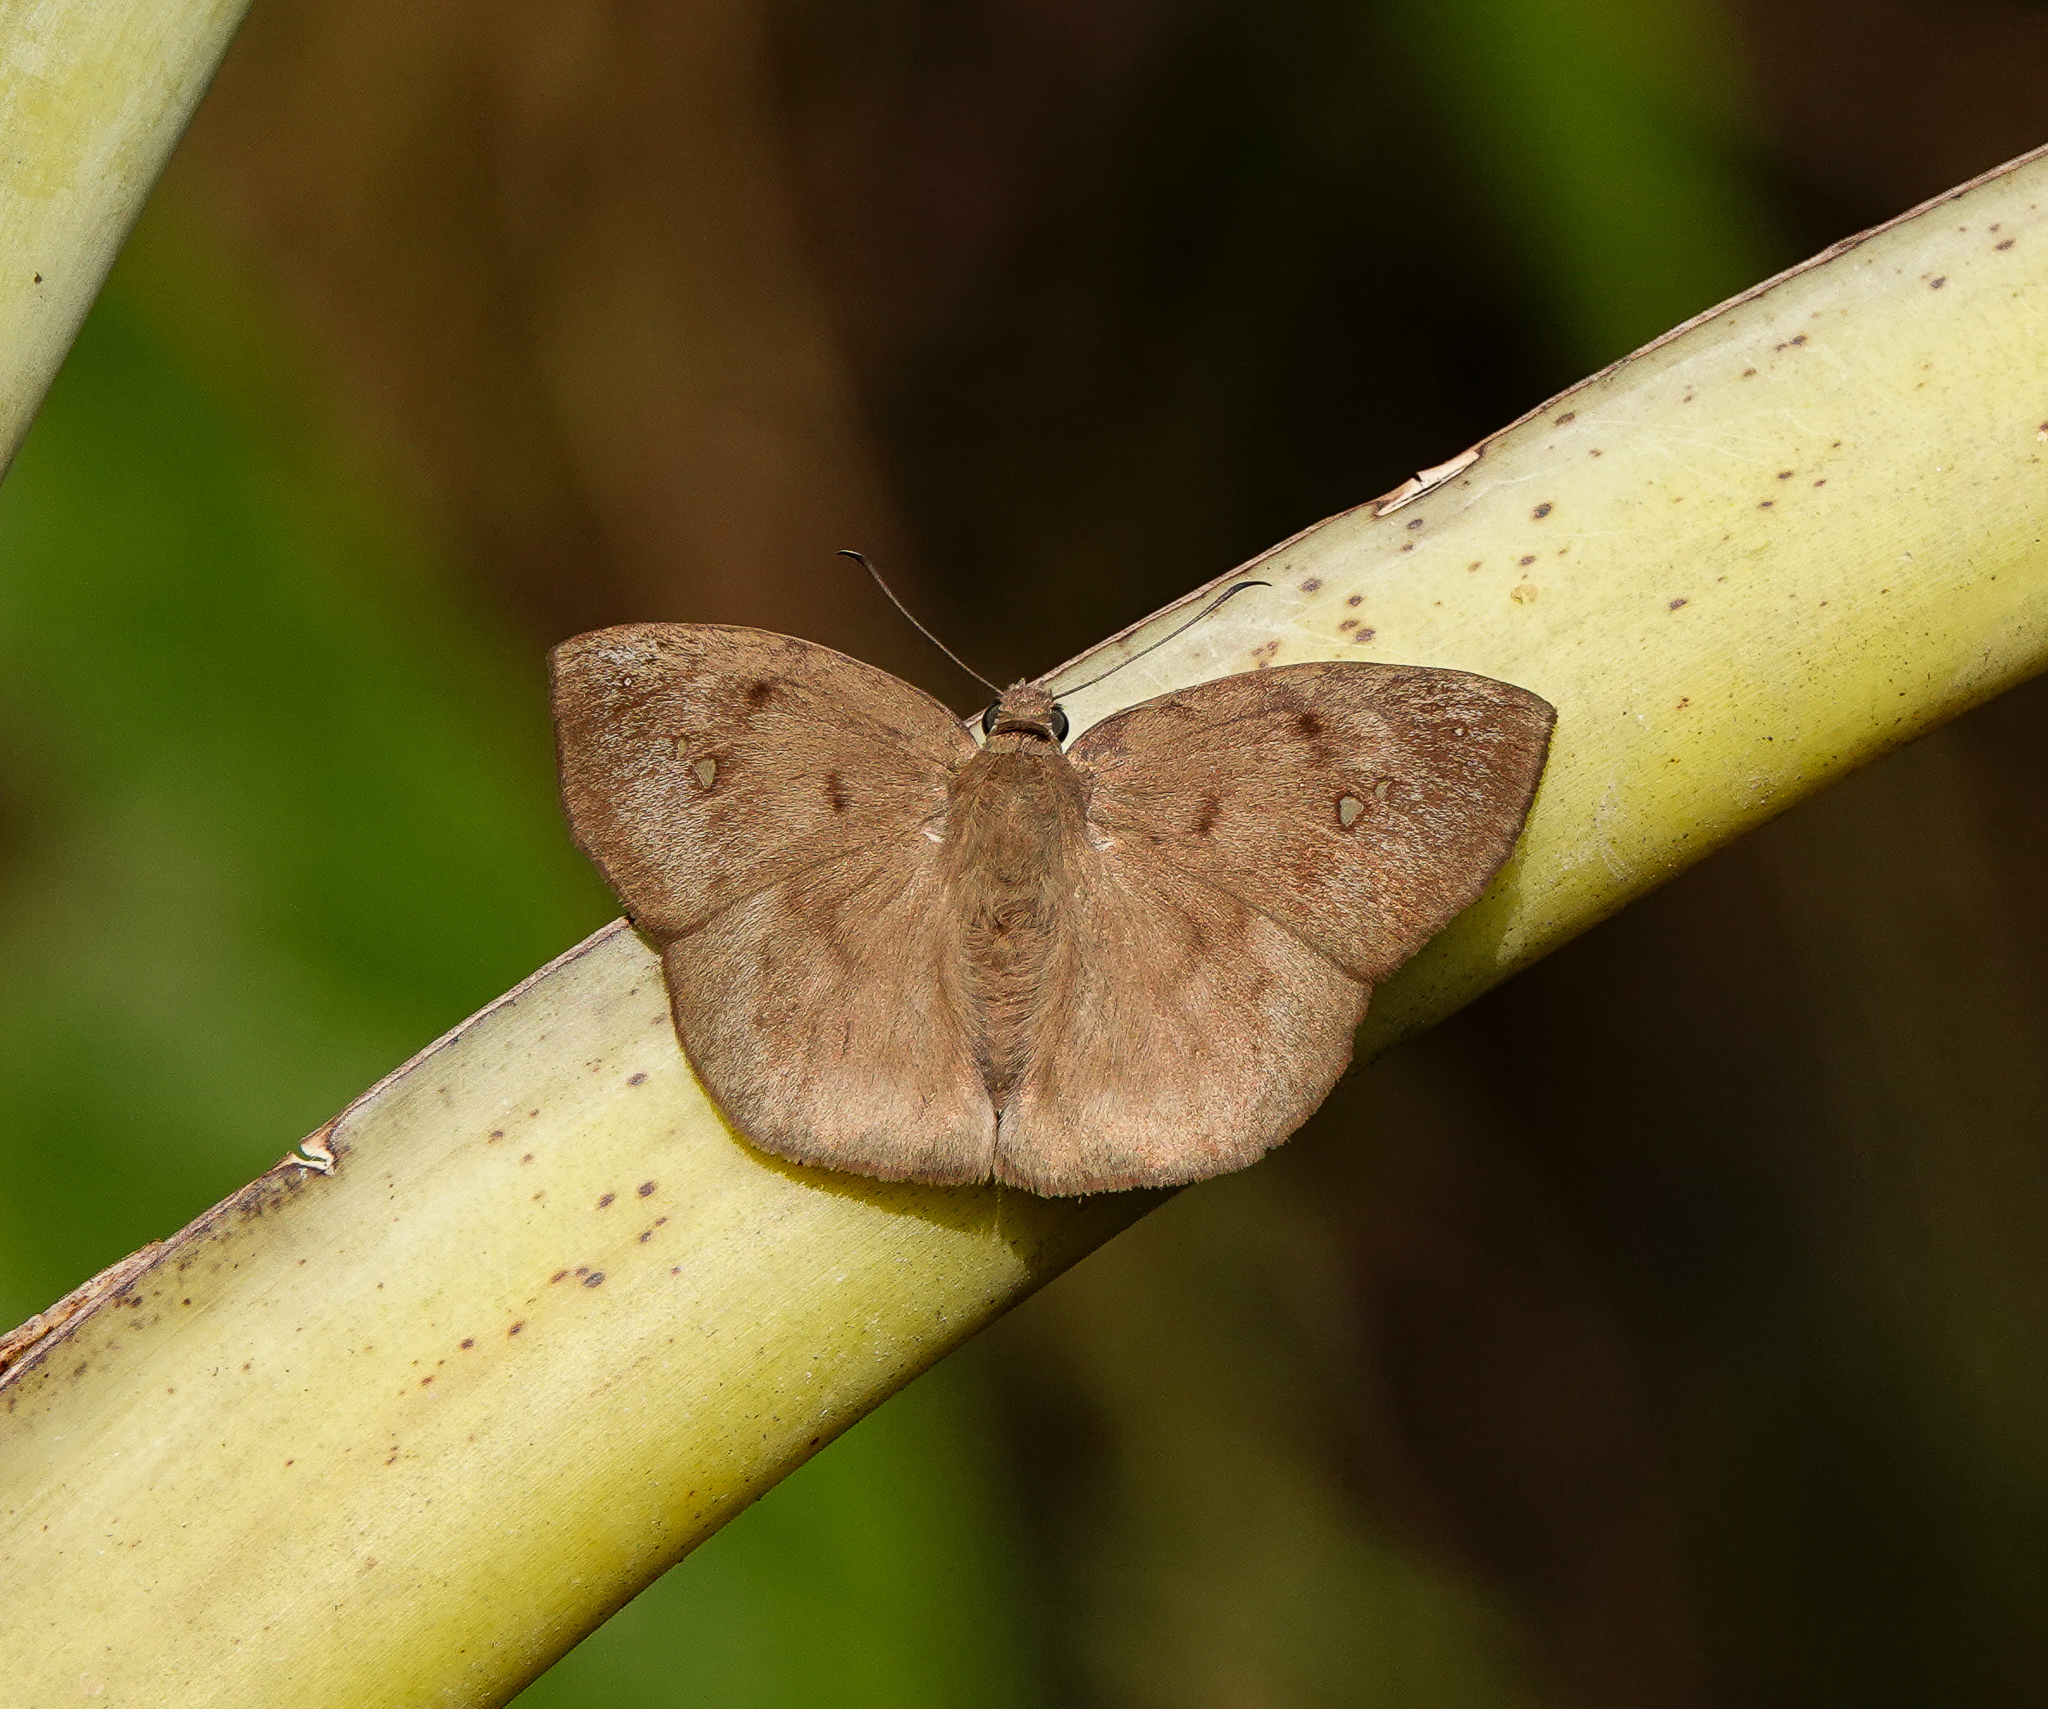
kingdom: Animalia
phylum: Arthropoda
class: Insecta
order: Lepidoptera
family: Hesperiidae
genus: Tagiades
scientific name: Tagiades japetus
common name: Pied flat
